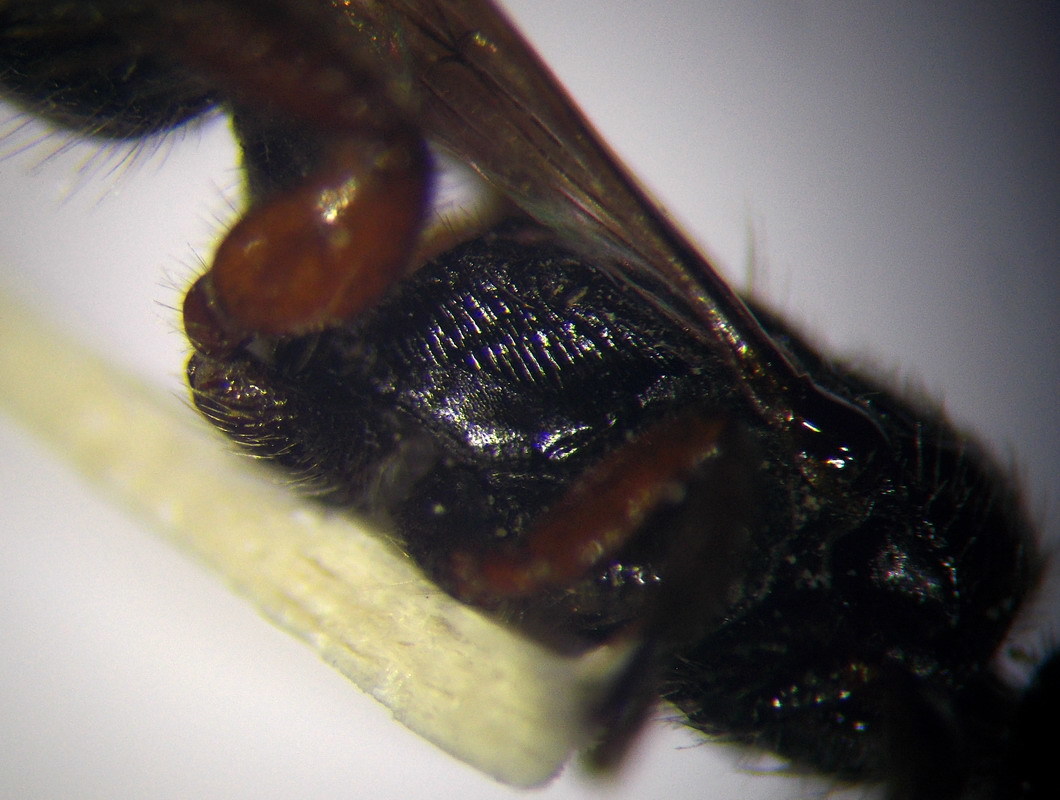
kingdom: Animalia
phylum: Arthropoda
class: Insecta
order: Hymenoptera
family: Tiphiidae
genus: Tiphia
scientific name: Tiphia femorata
